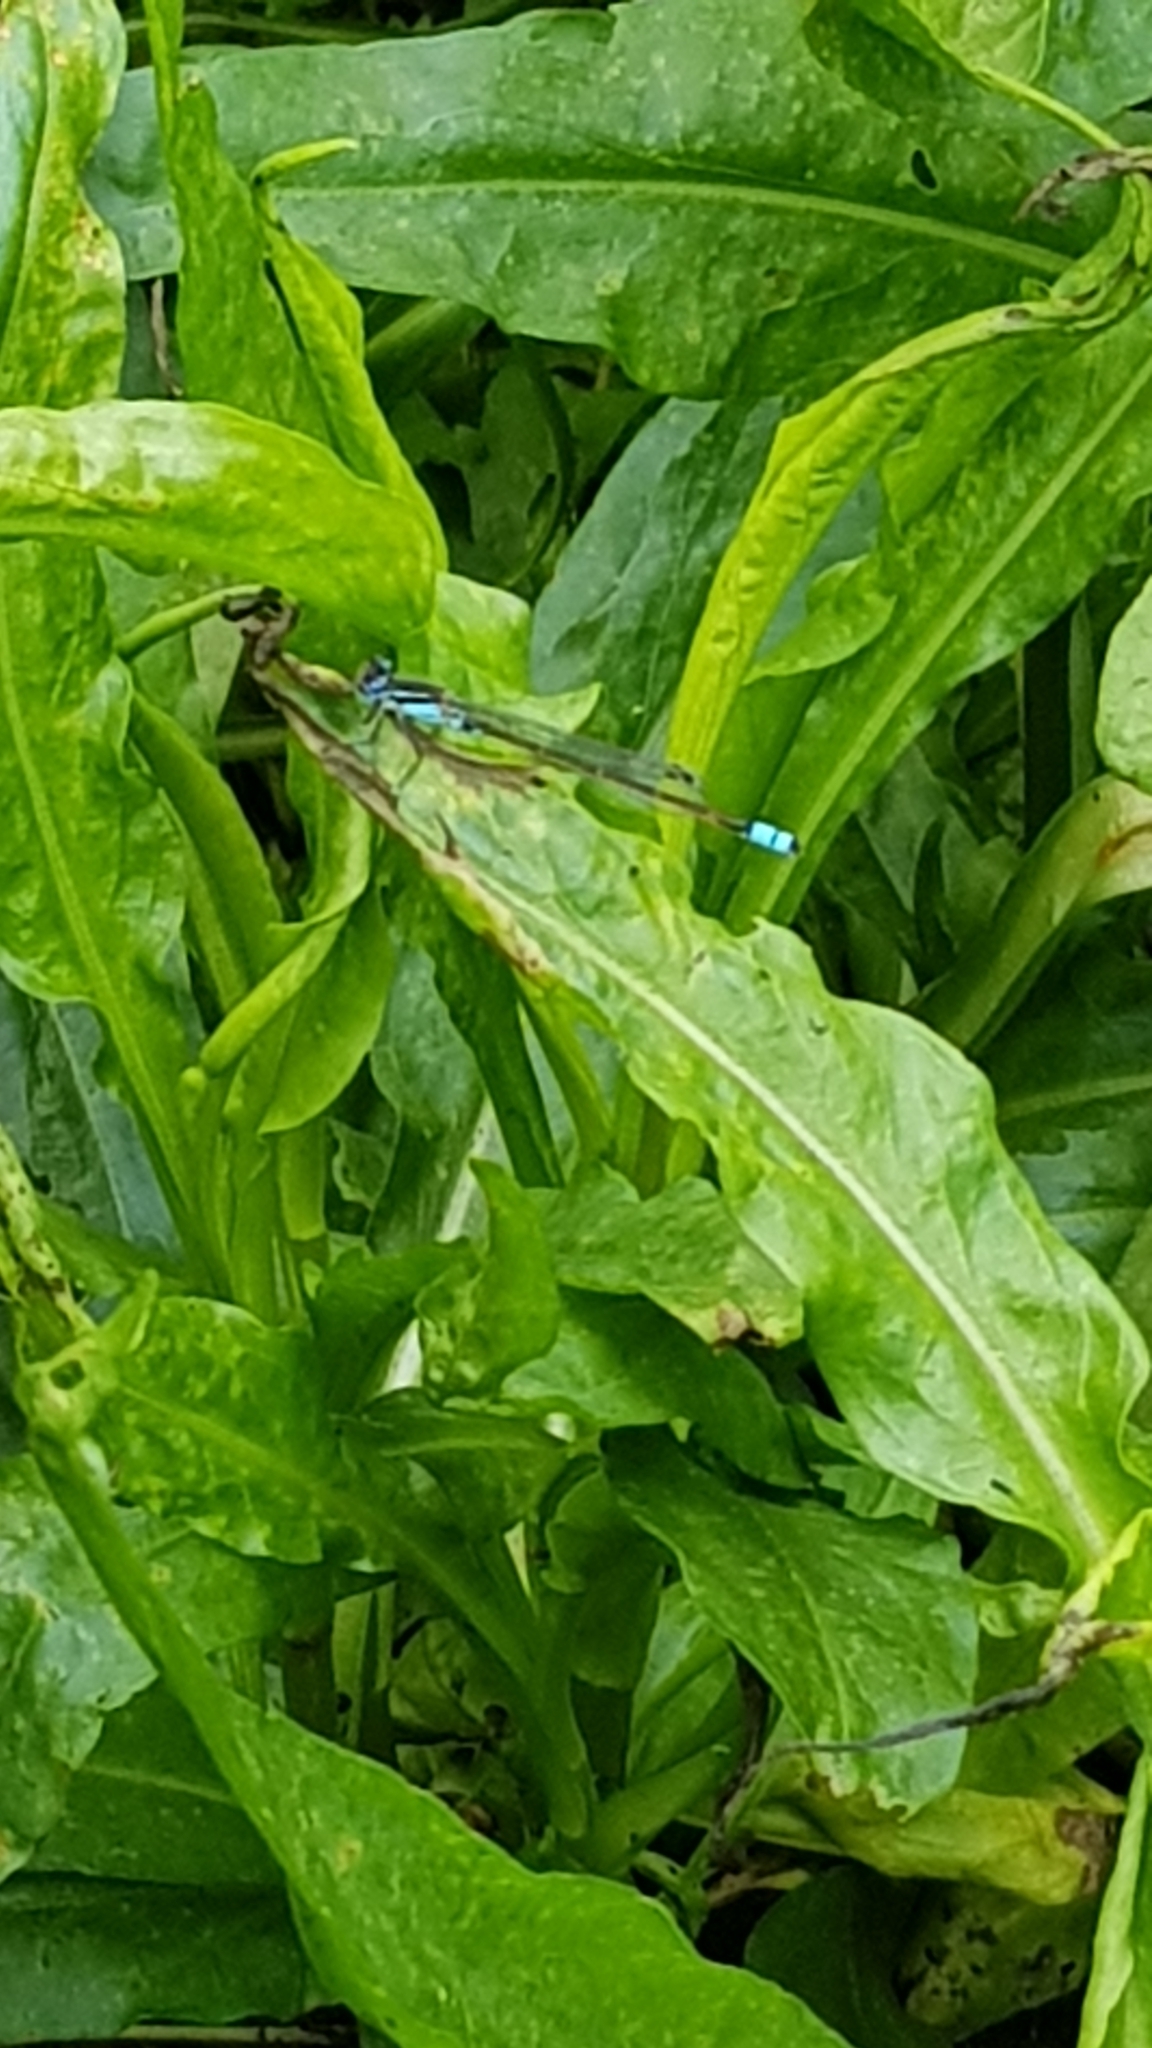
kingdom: Animalia
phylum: Arthropoda
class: Insecta
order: Odonata
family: Coenagrionidae
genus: Ischnura
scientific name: Ischnura heterosticta
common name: Common bluetail
